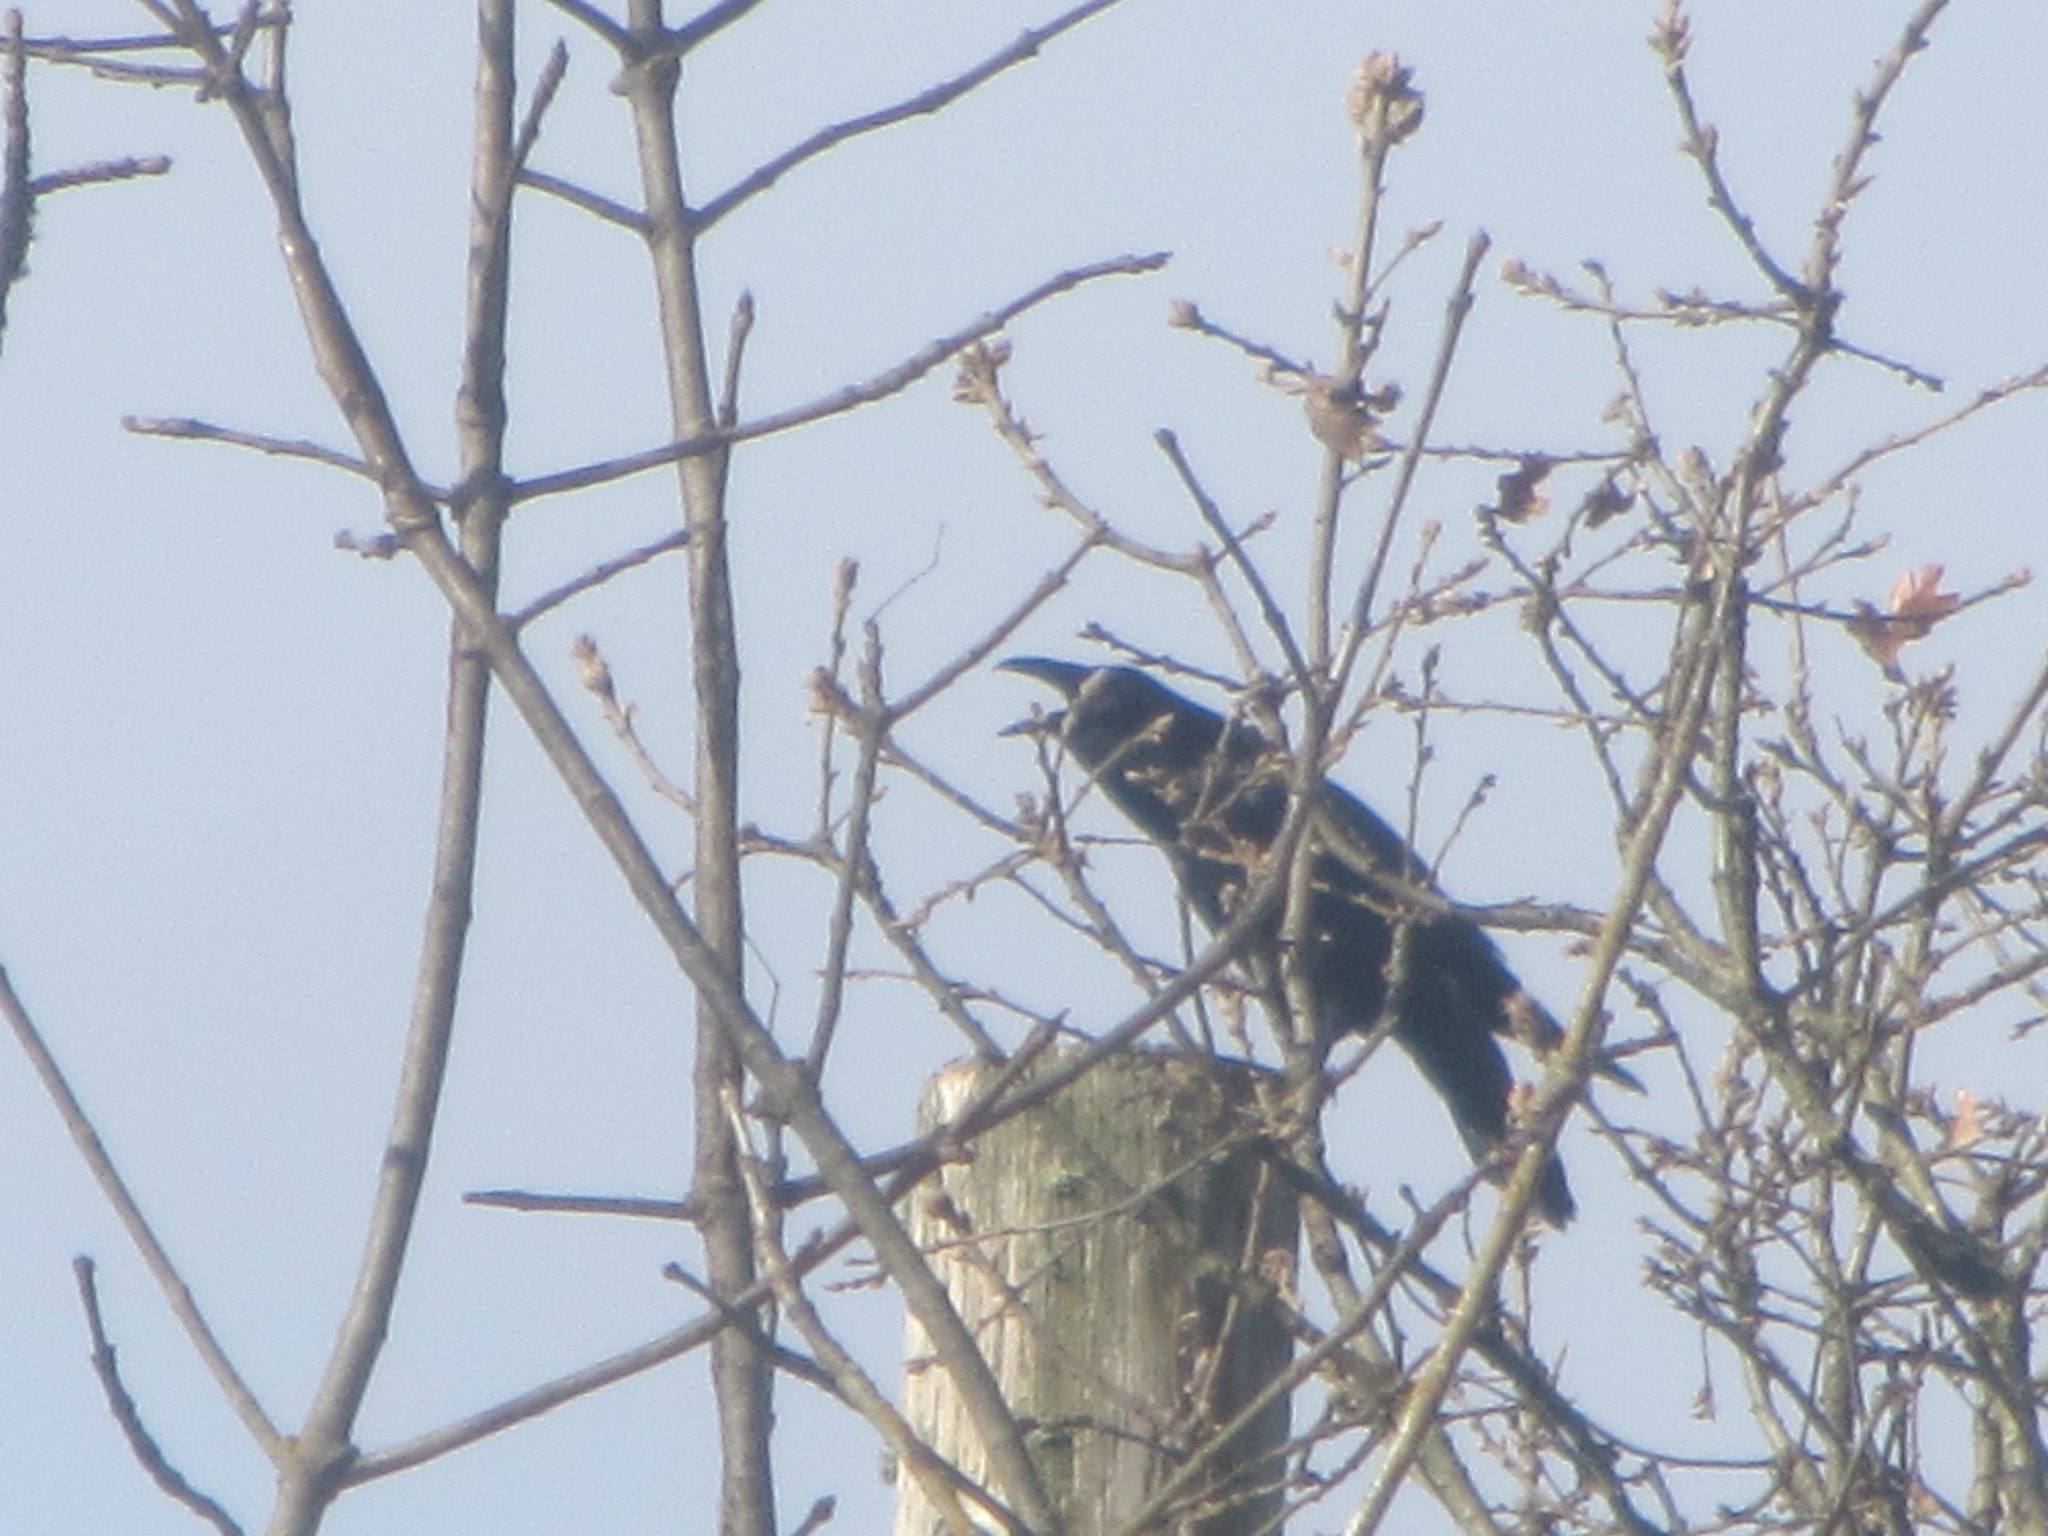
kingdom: Animalia
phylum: Chordata
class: Aves
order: Passeriformes
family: Corvidae
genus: Corvus
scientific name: Corvus corax
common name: Common raven
